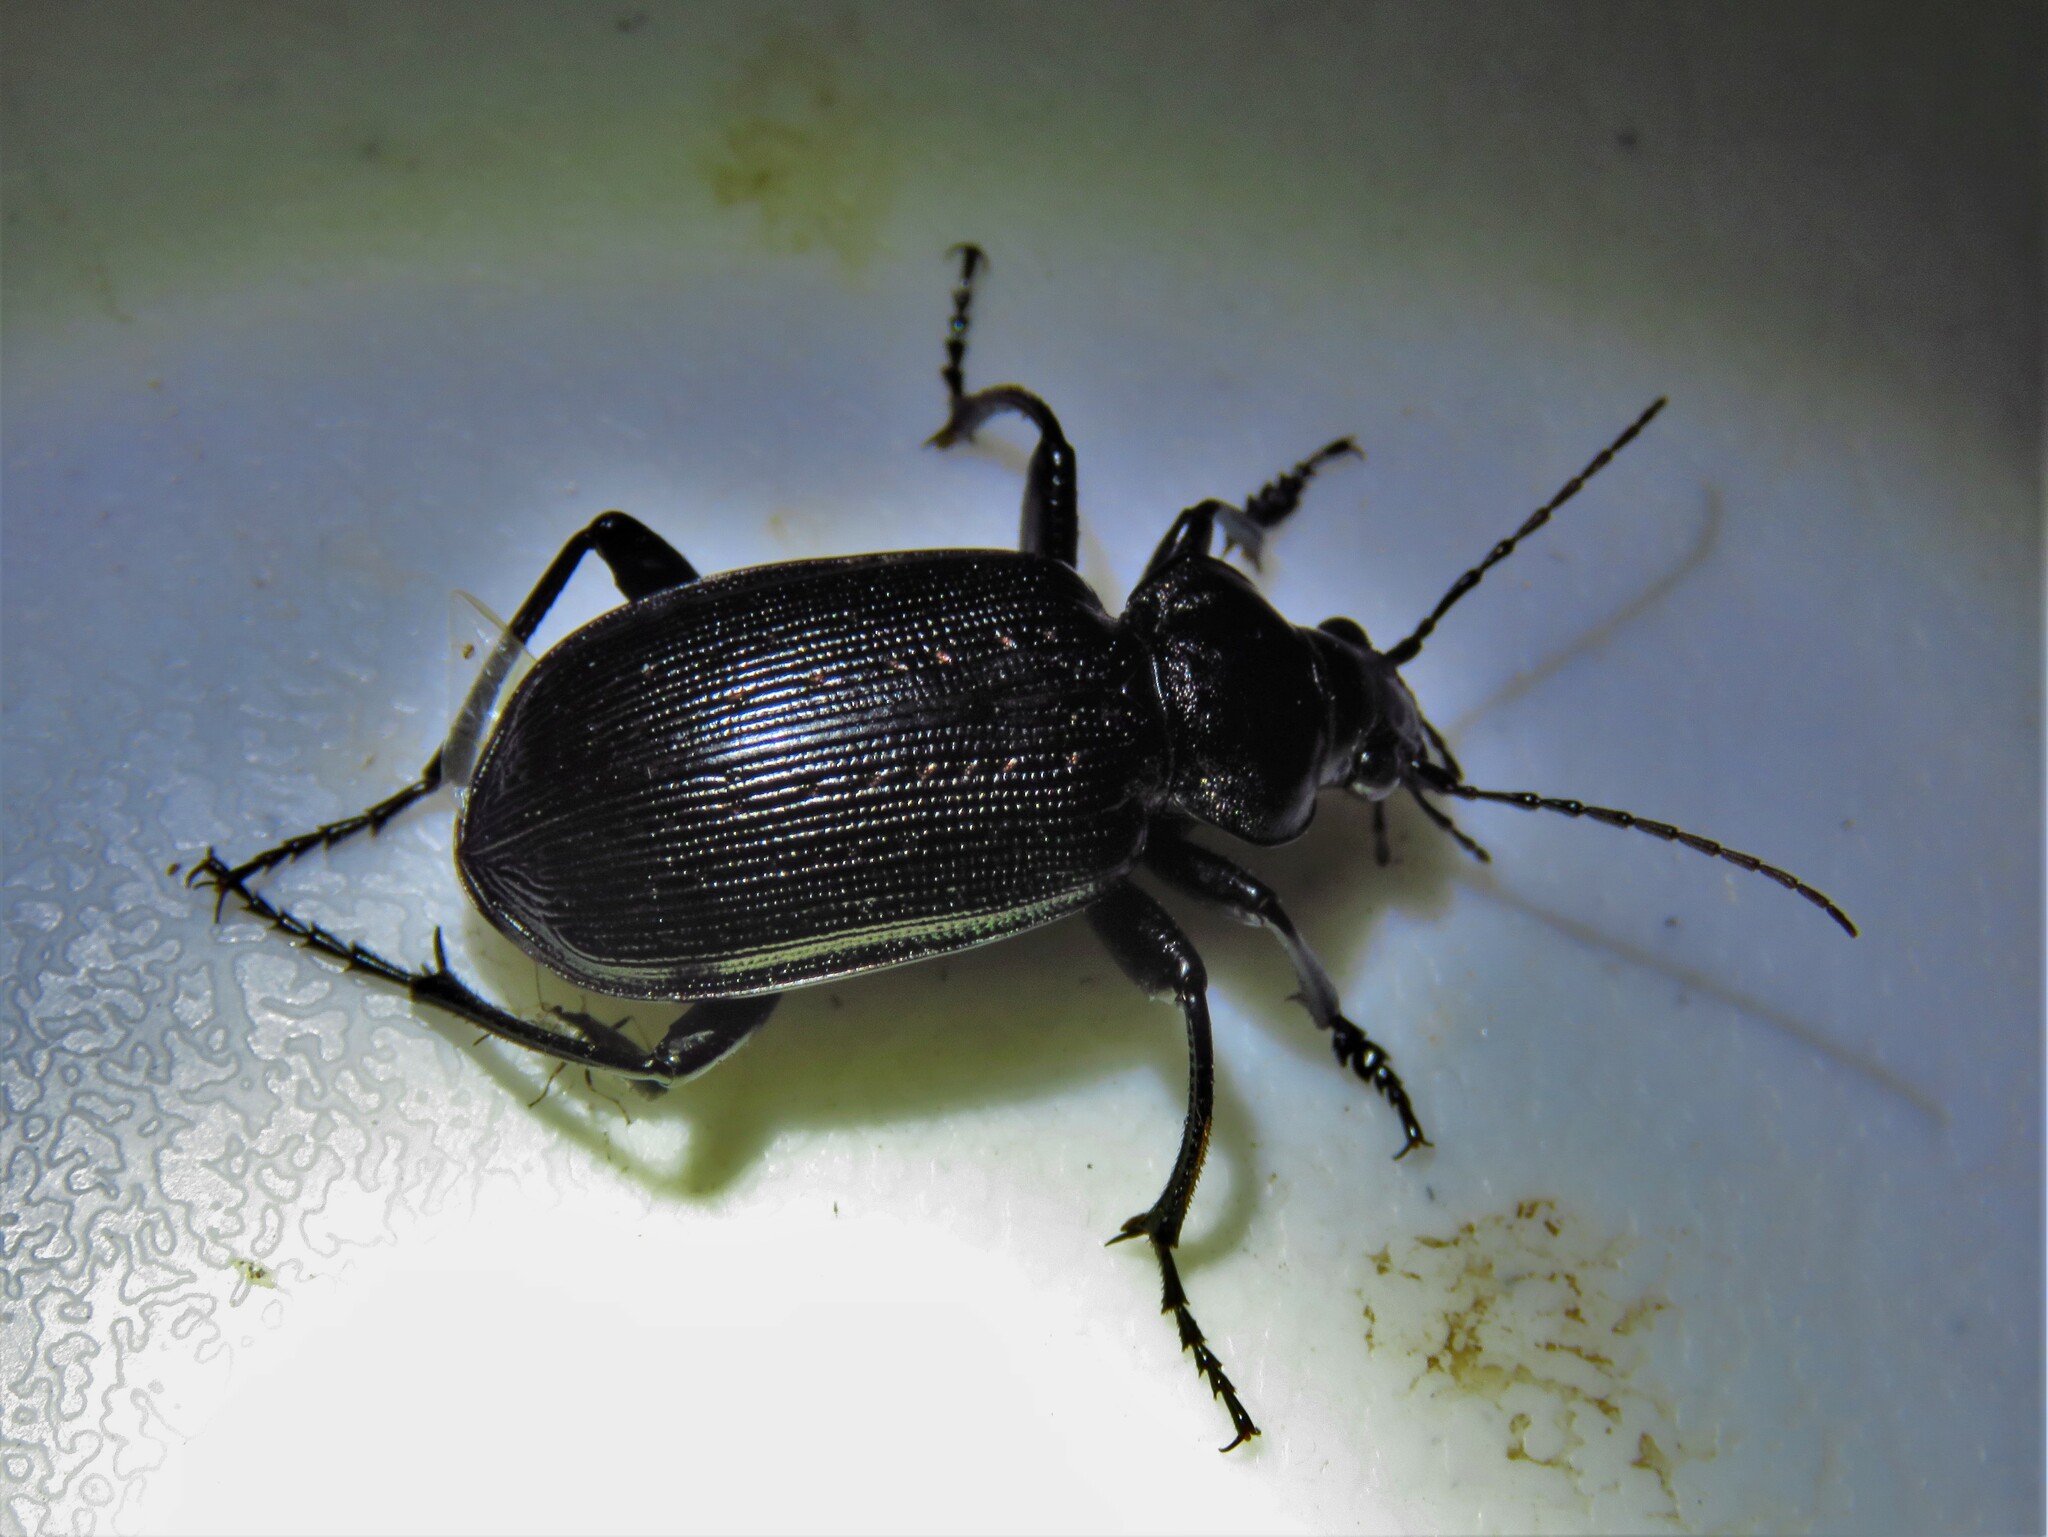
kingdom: Animalia
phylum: Arthropoda
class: Insecta
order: Coleoptera
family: Carabidae
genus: Calosoma
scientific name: Calosoma sayi
